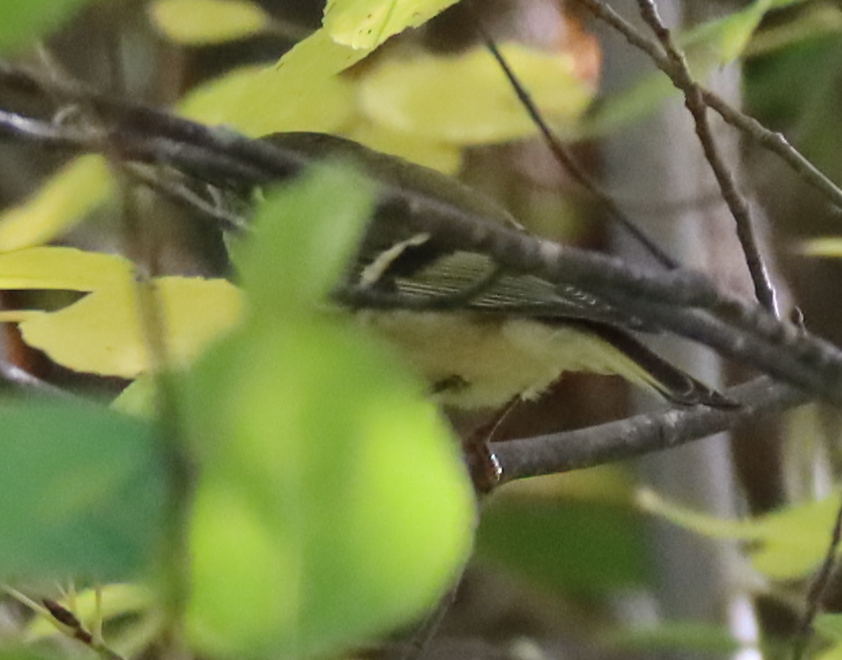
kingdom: Animalia
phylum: Chordata
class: Aves
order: Passeriformes
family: Regulidae
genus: Regulus
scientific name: Regulus calendula
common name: Ruby-crowned kinglet
